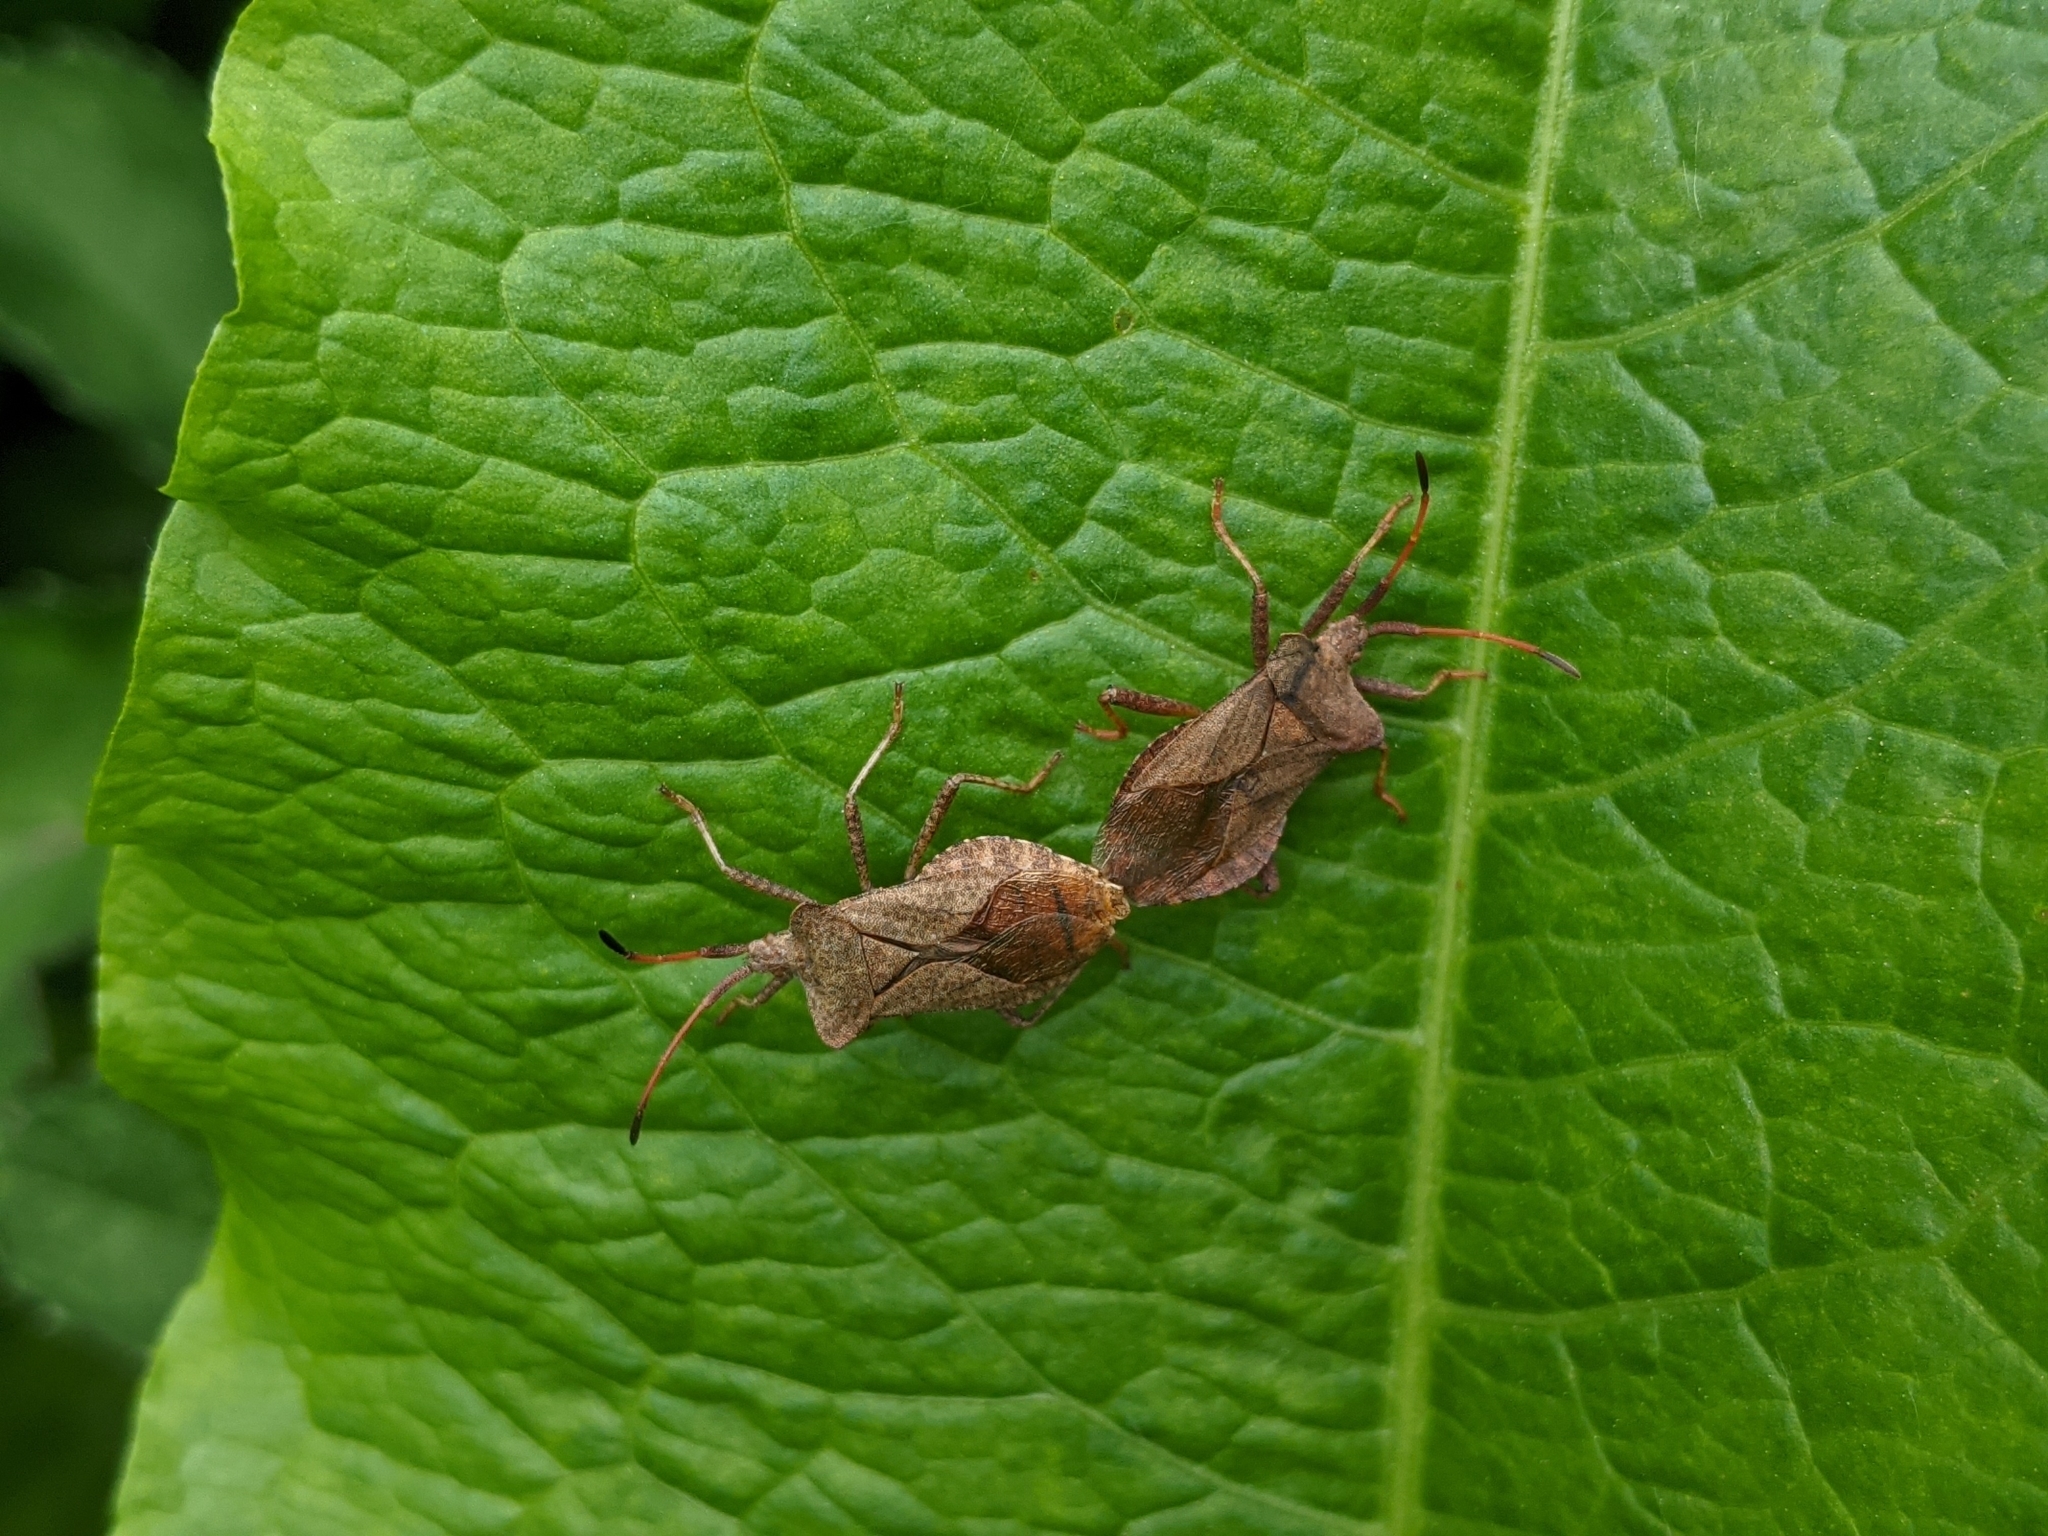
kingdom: Animalia
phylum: Arthropoda
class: Insecta
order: Hemiptera
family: Coreidae
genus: Coreus
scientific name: Coreus marginatus
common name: Dock bug
